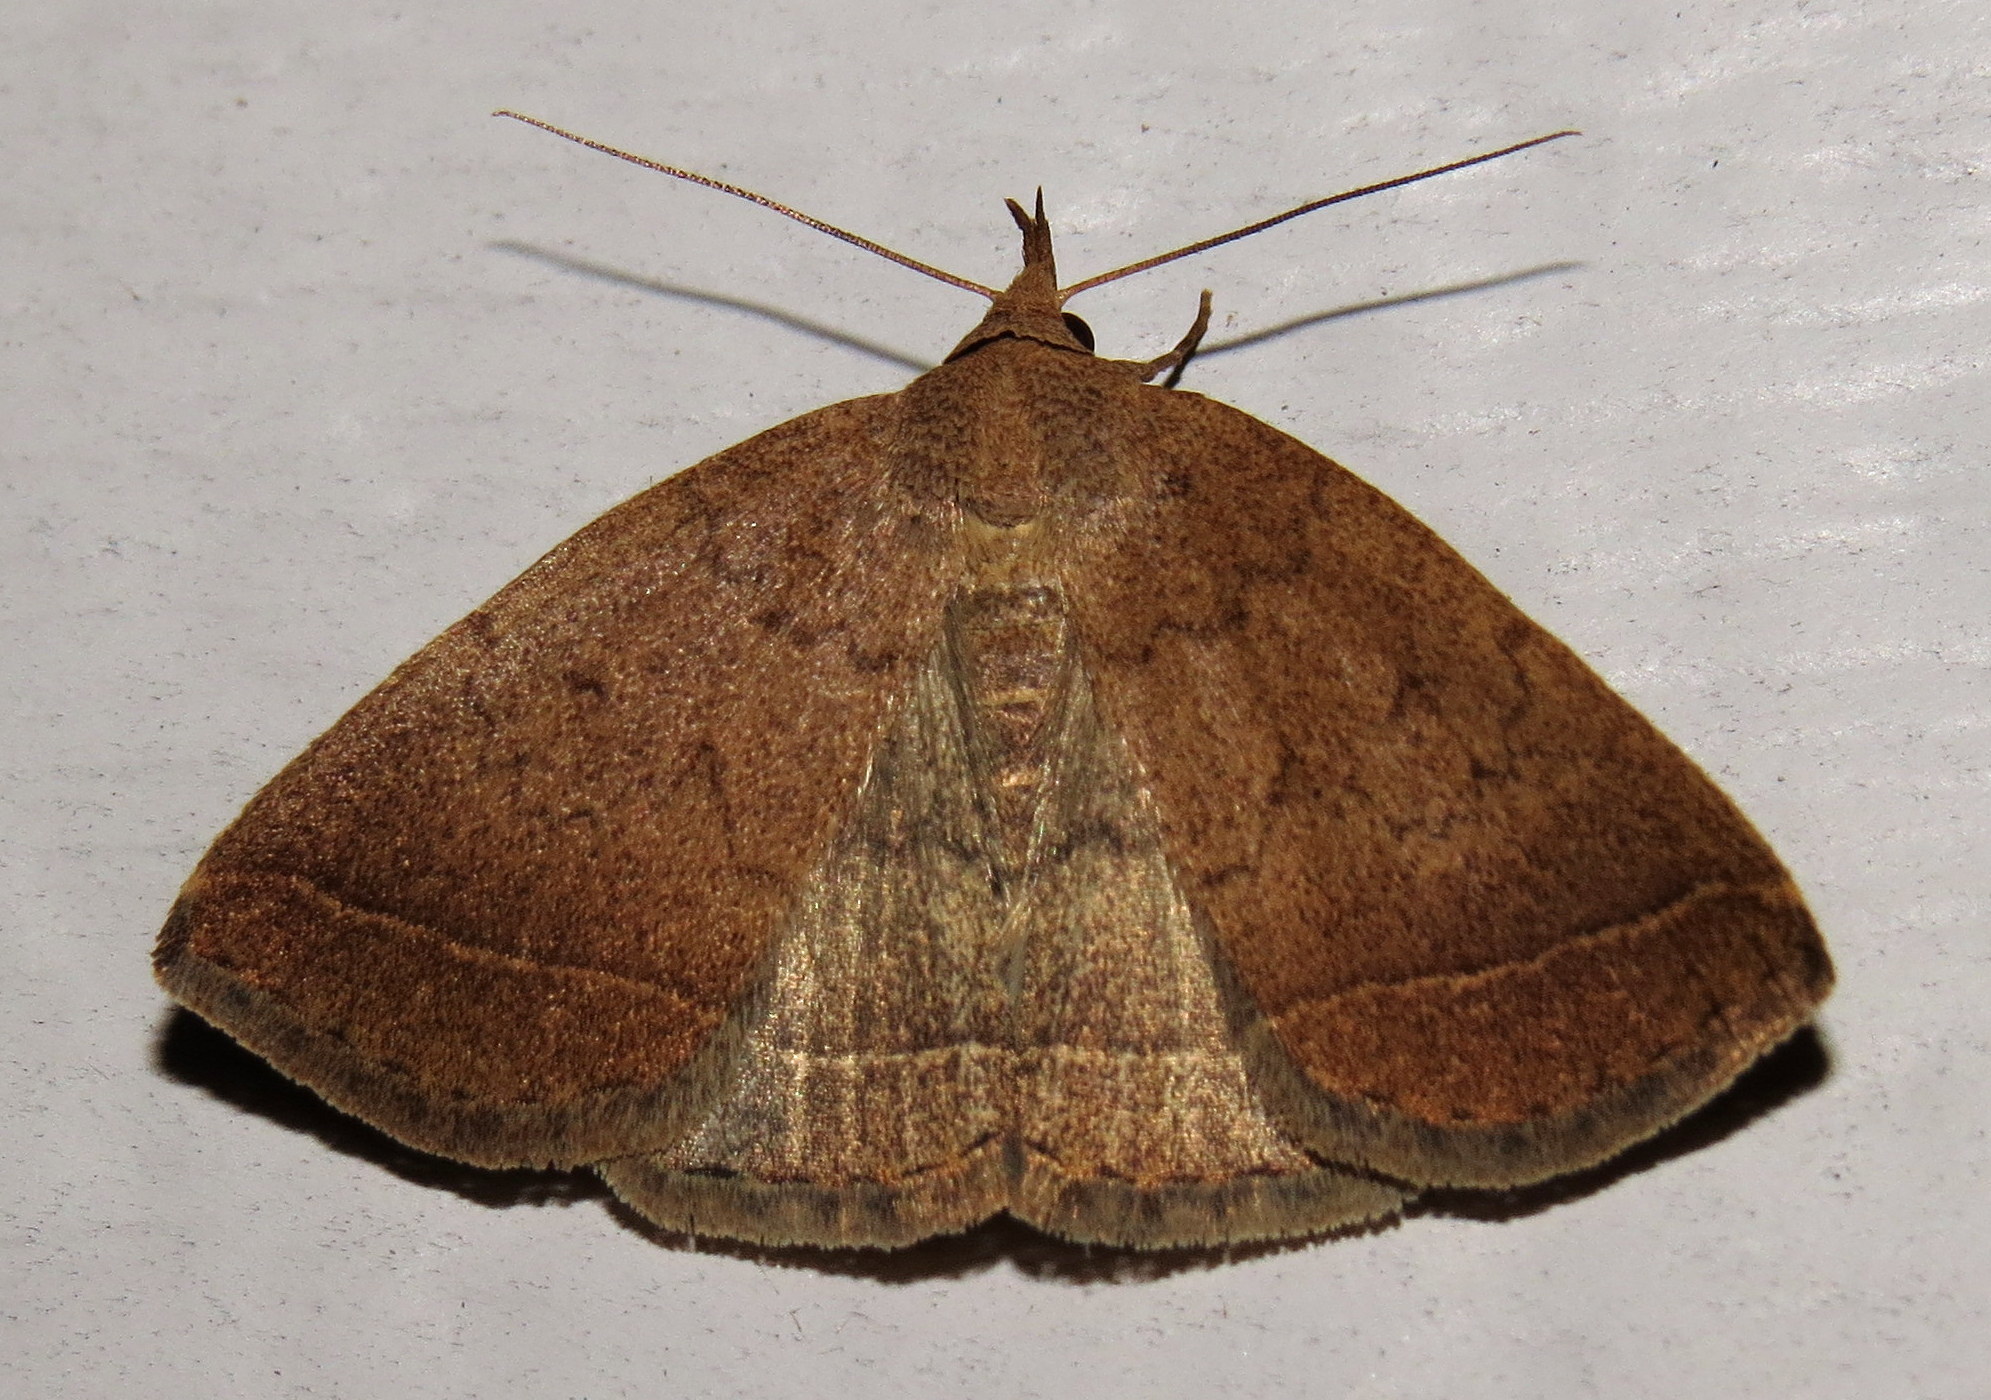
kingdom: Animalia
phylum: Arthropoda
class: Insecta
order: Lepidoptera
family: Erebidae
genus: Zanclognatha
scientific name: Zanclognatha jacchusalis
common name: Yellowish zanclognatha
